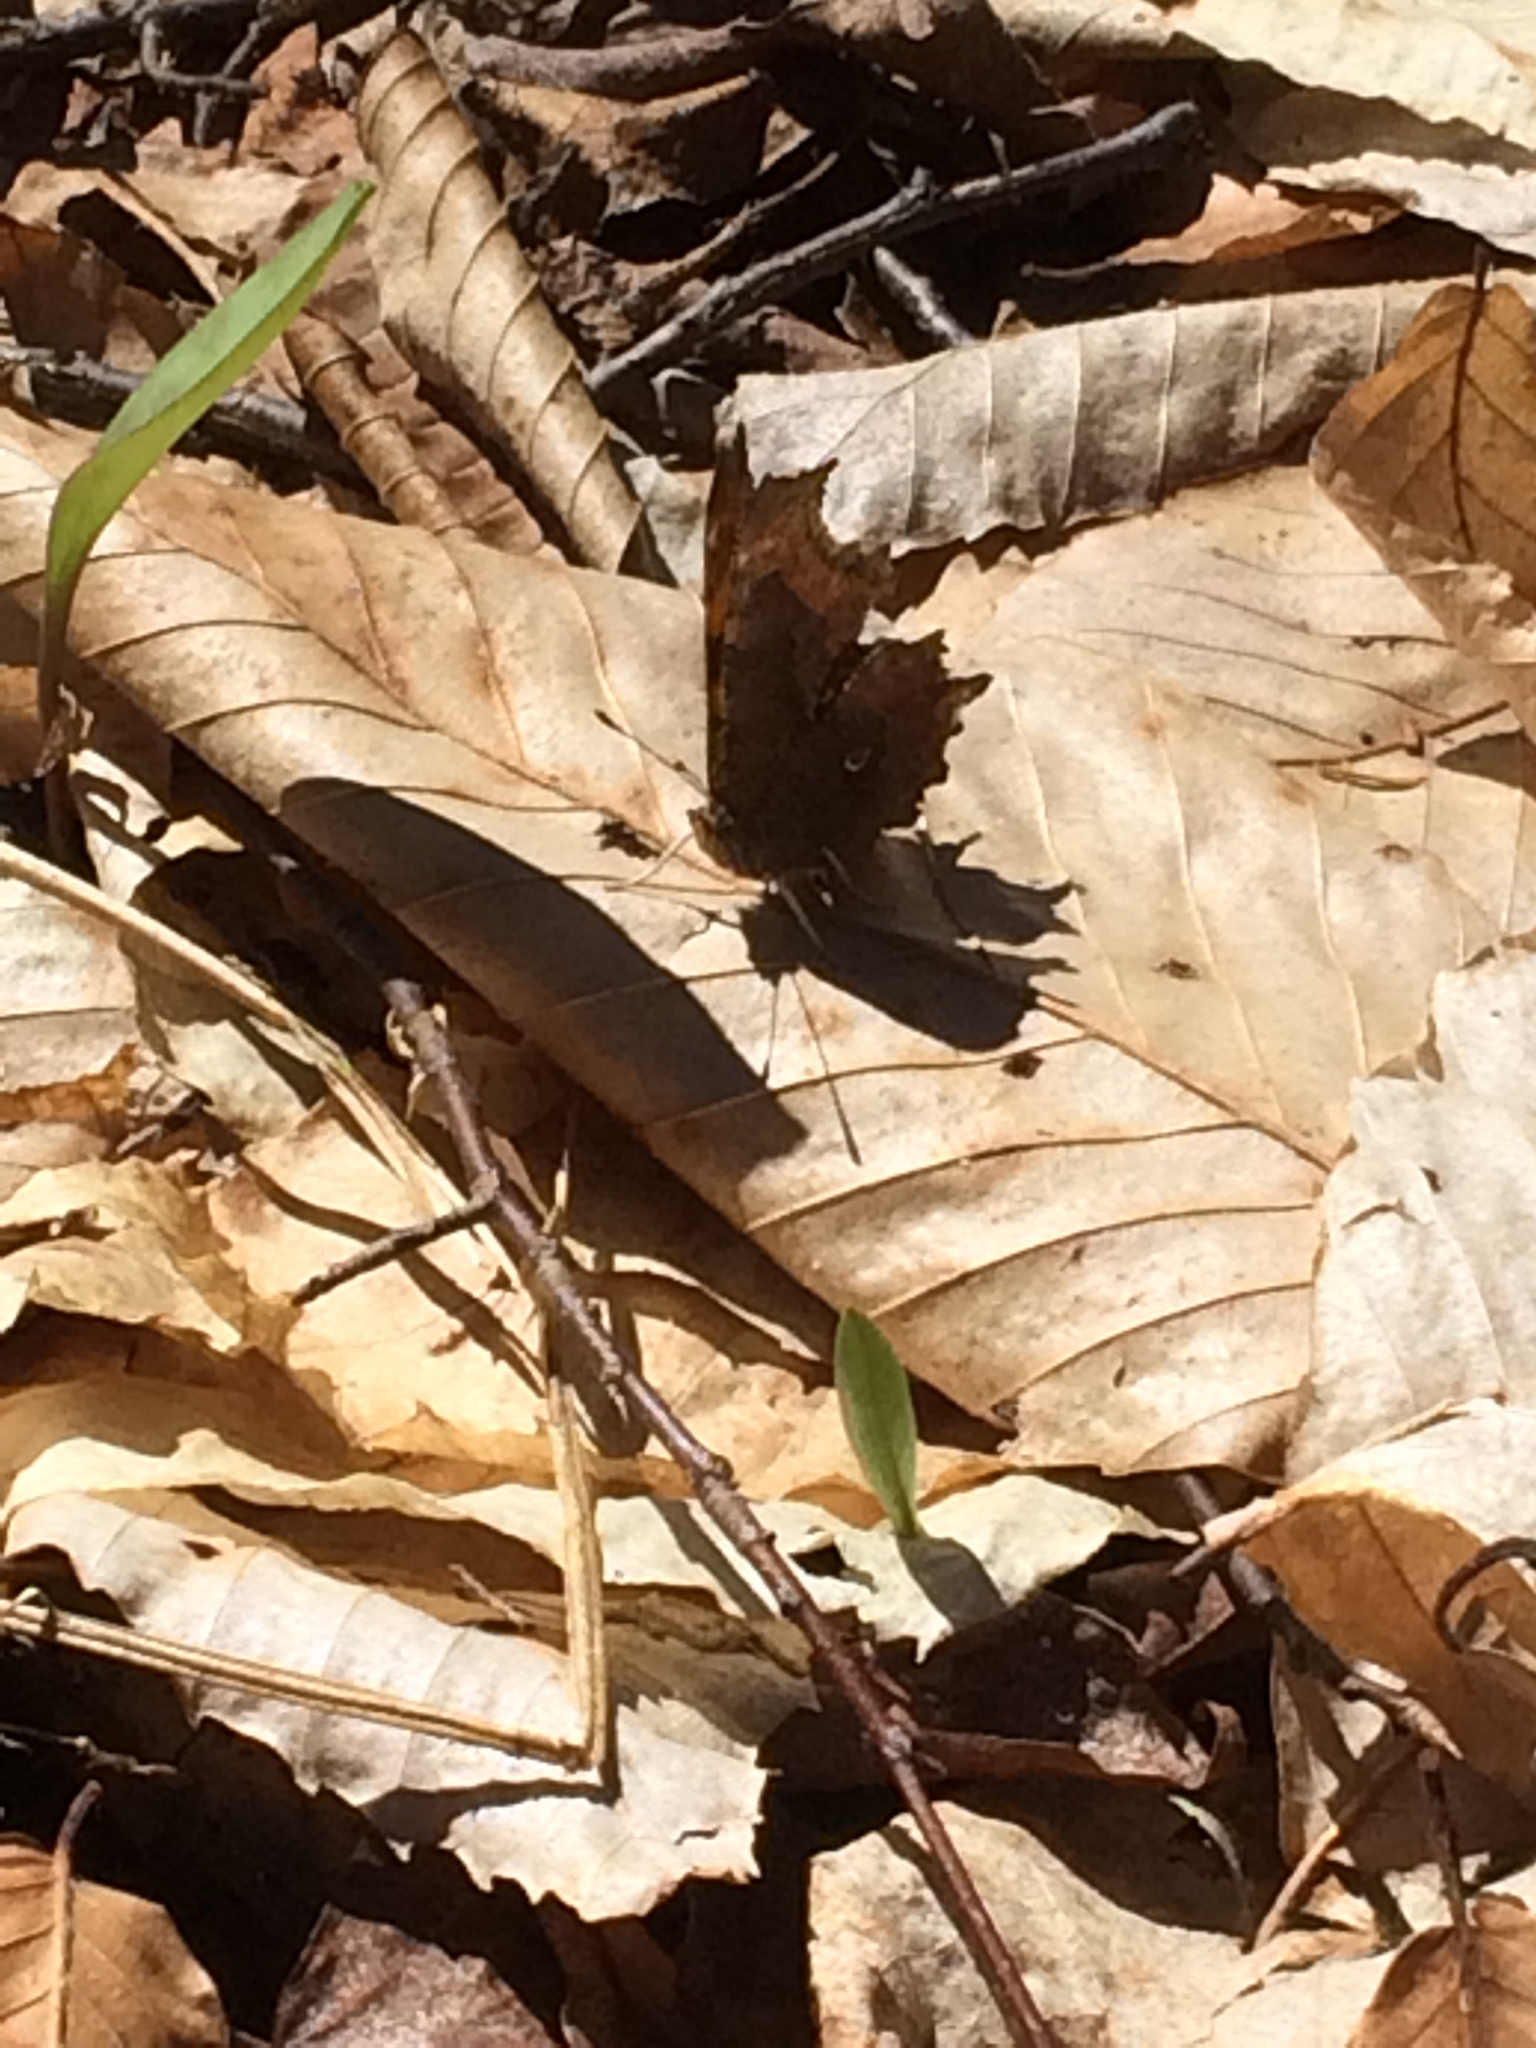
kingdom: Animalia
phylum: Arthropoda
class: Insecta
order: Lepidoptera
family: Nymphalidae
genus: Polygonia
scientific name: Polygonia comma
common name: Eastern comma
